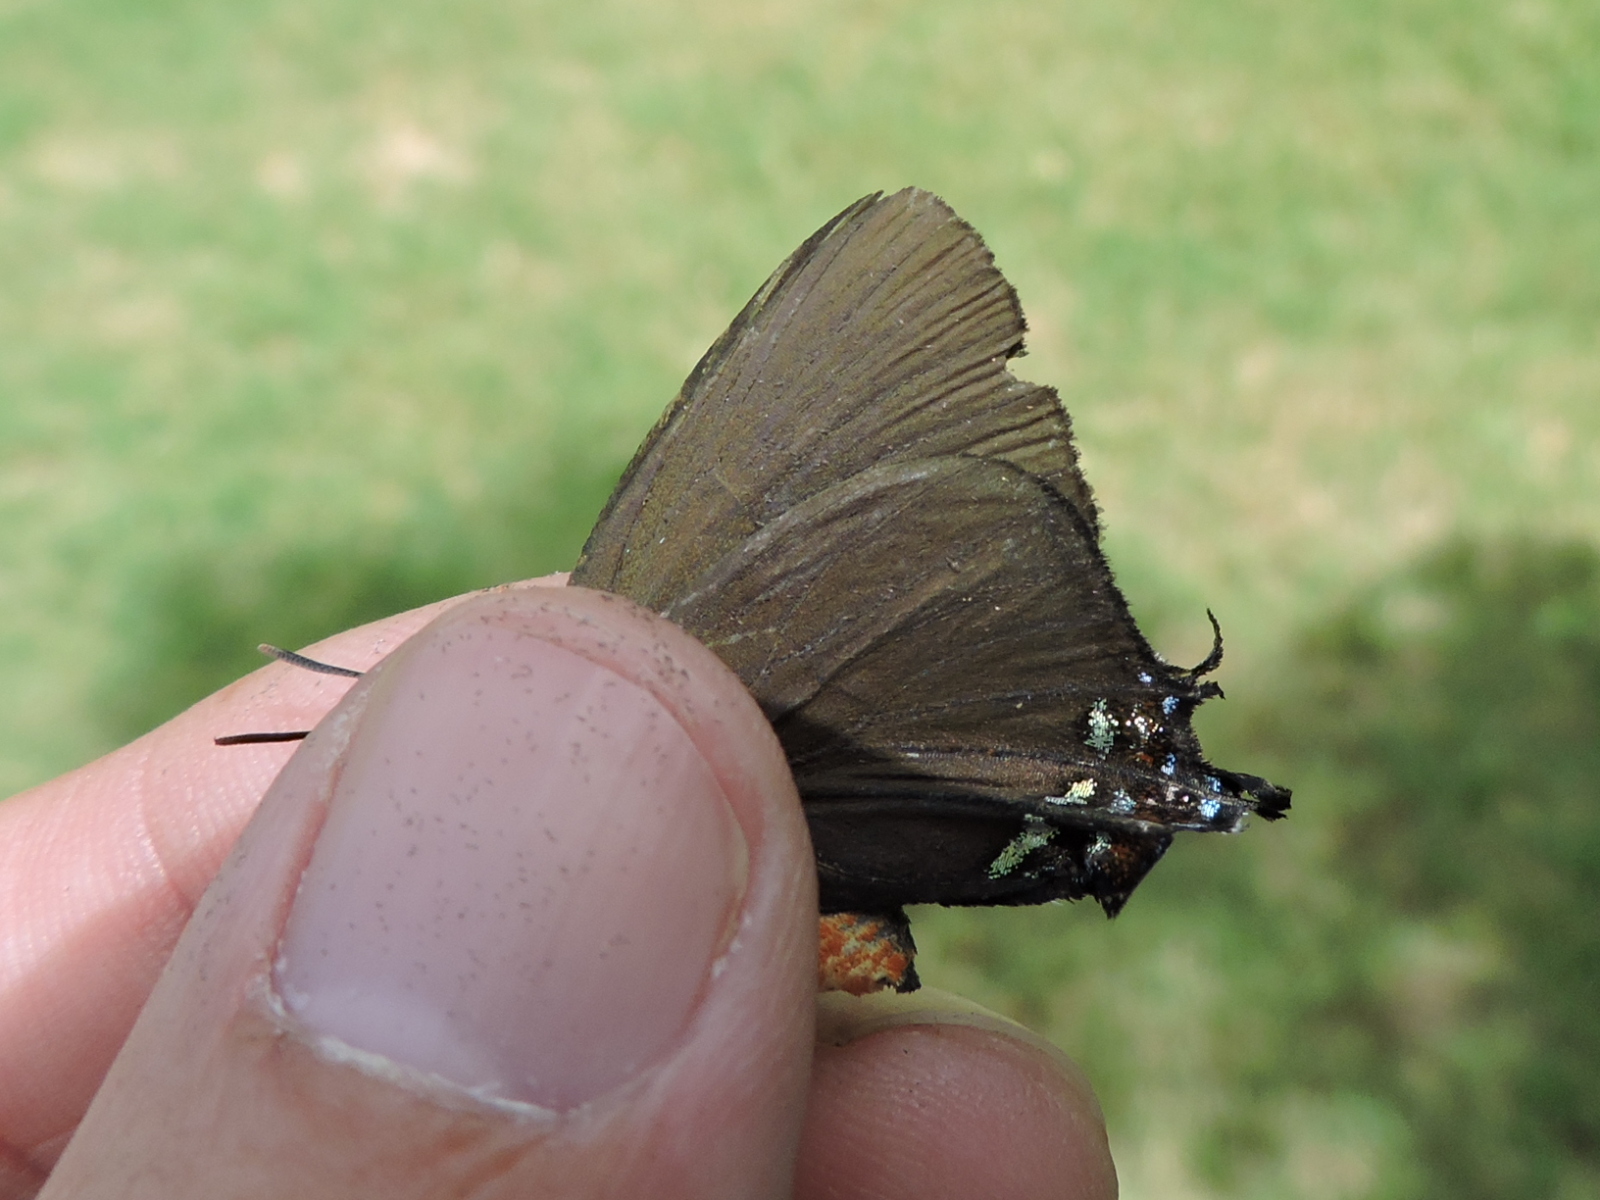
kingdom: Animalia
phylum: Arthropoda
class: Insecta
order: Lepidoptera
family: Lycaenidae
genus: Atlides
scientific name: Atlides halesus
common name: Great purple hairstreak
